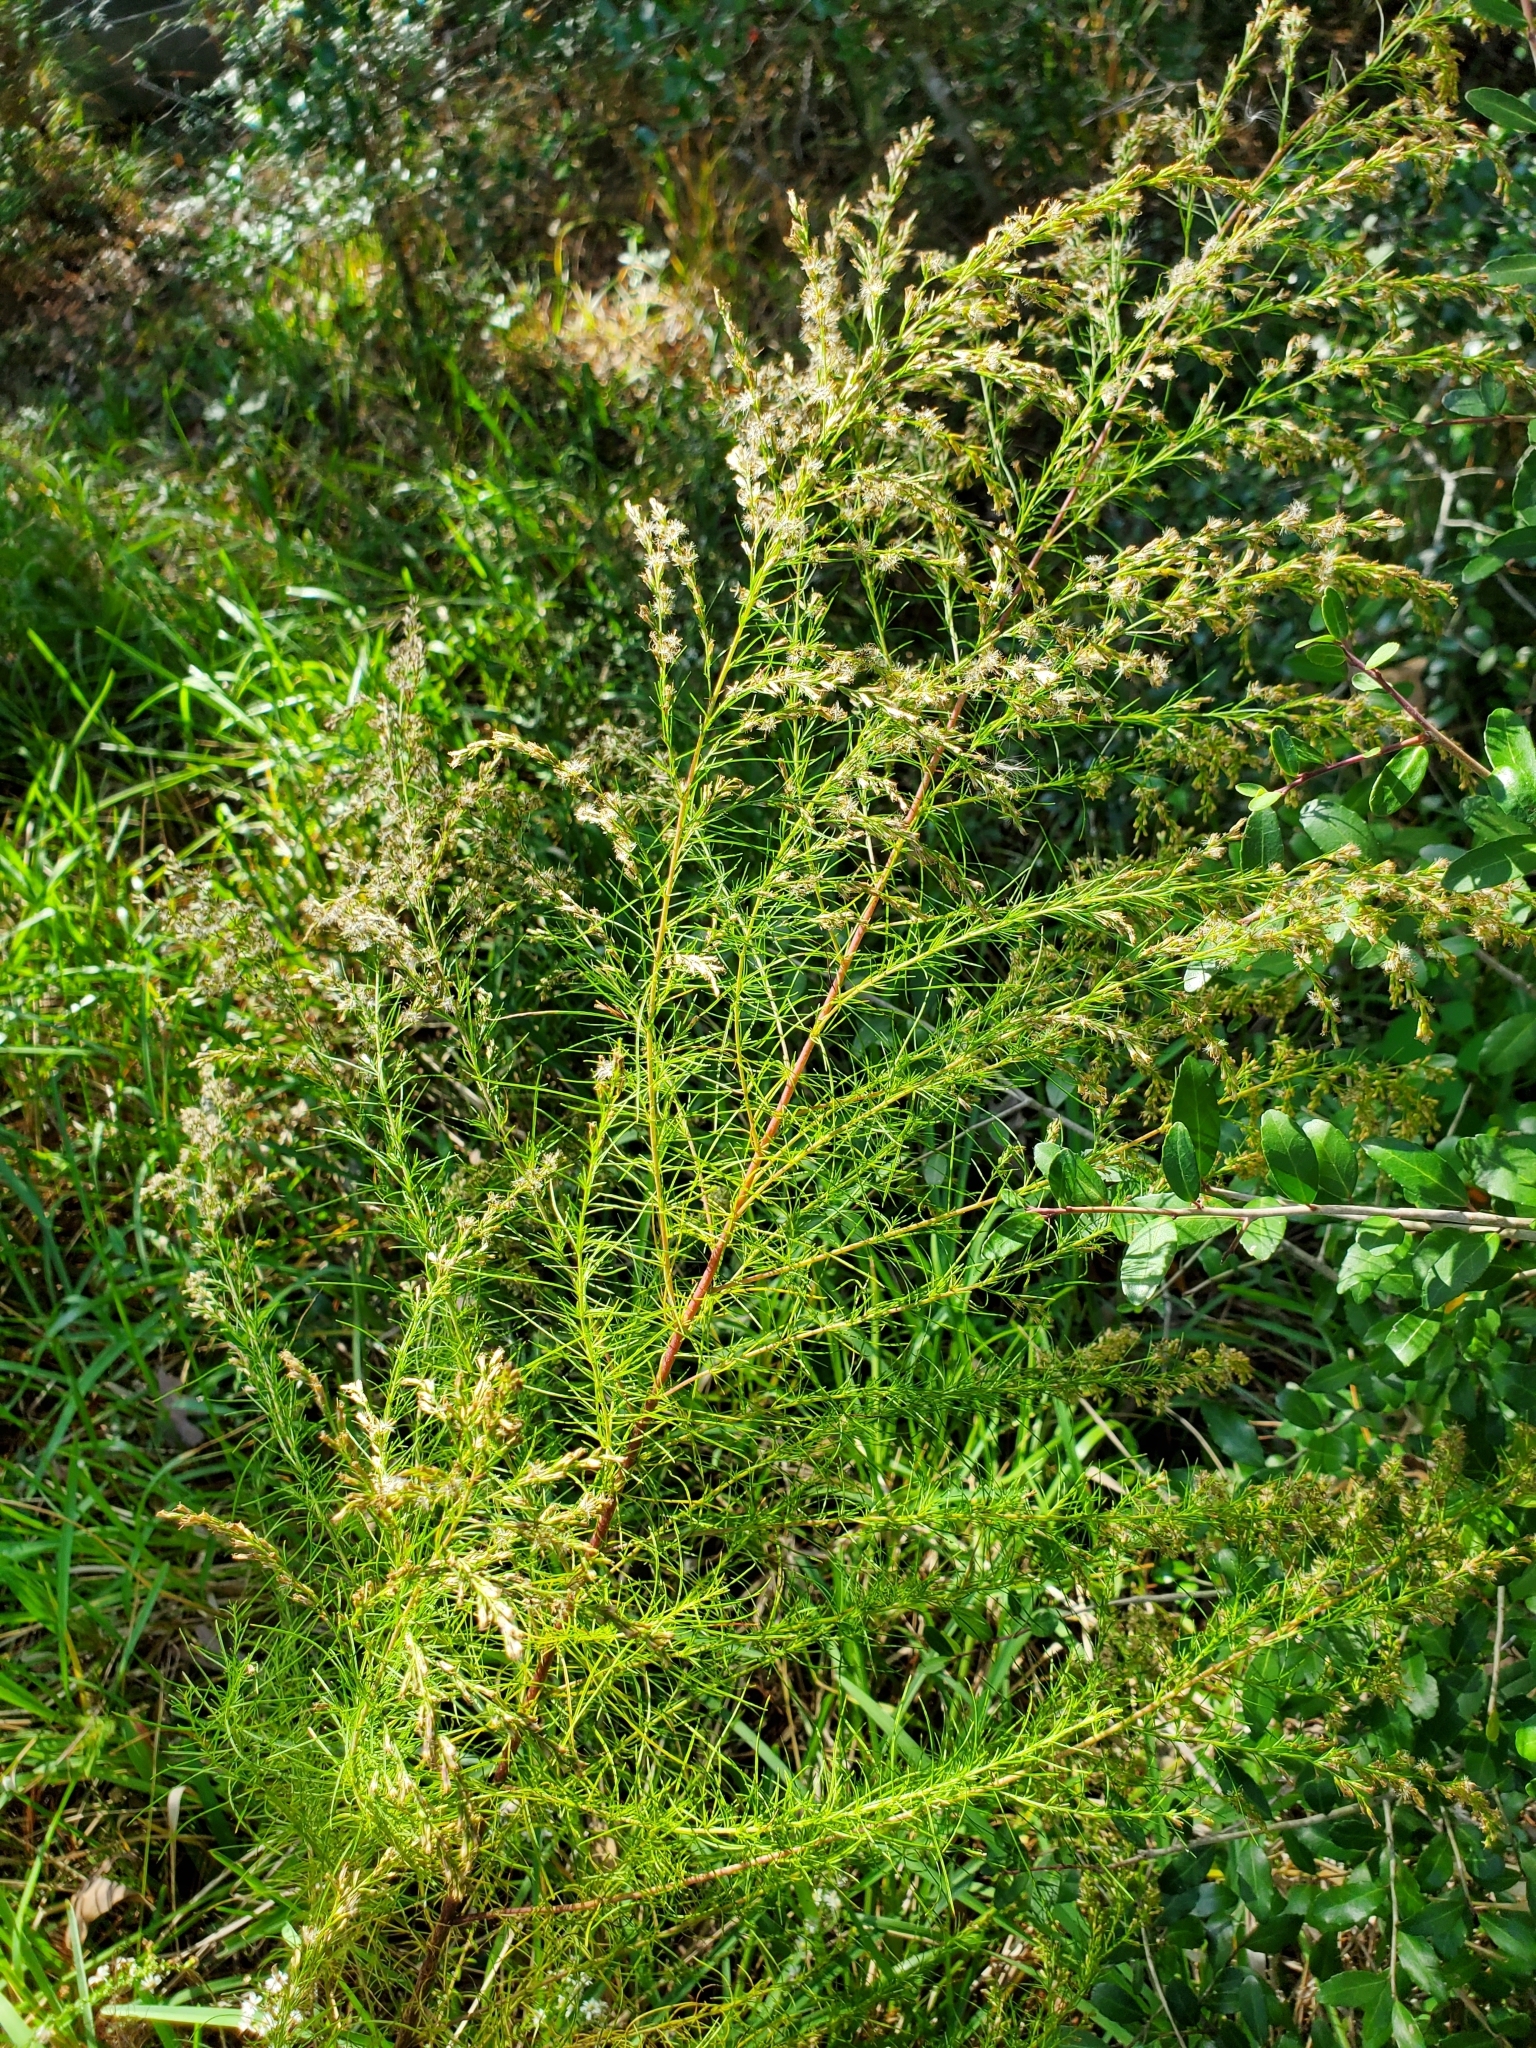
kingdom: Plantae
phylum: Tracheophyta
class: Magnoliopsida
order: Asterales
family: Asteraceae
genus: Eupatorium
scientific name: Eupatorium capillifolium
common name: Dog-fennel
